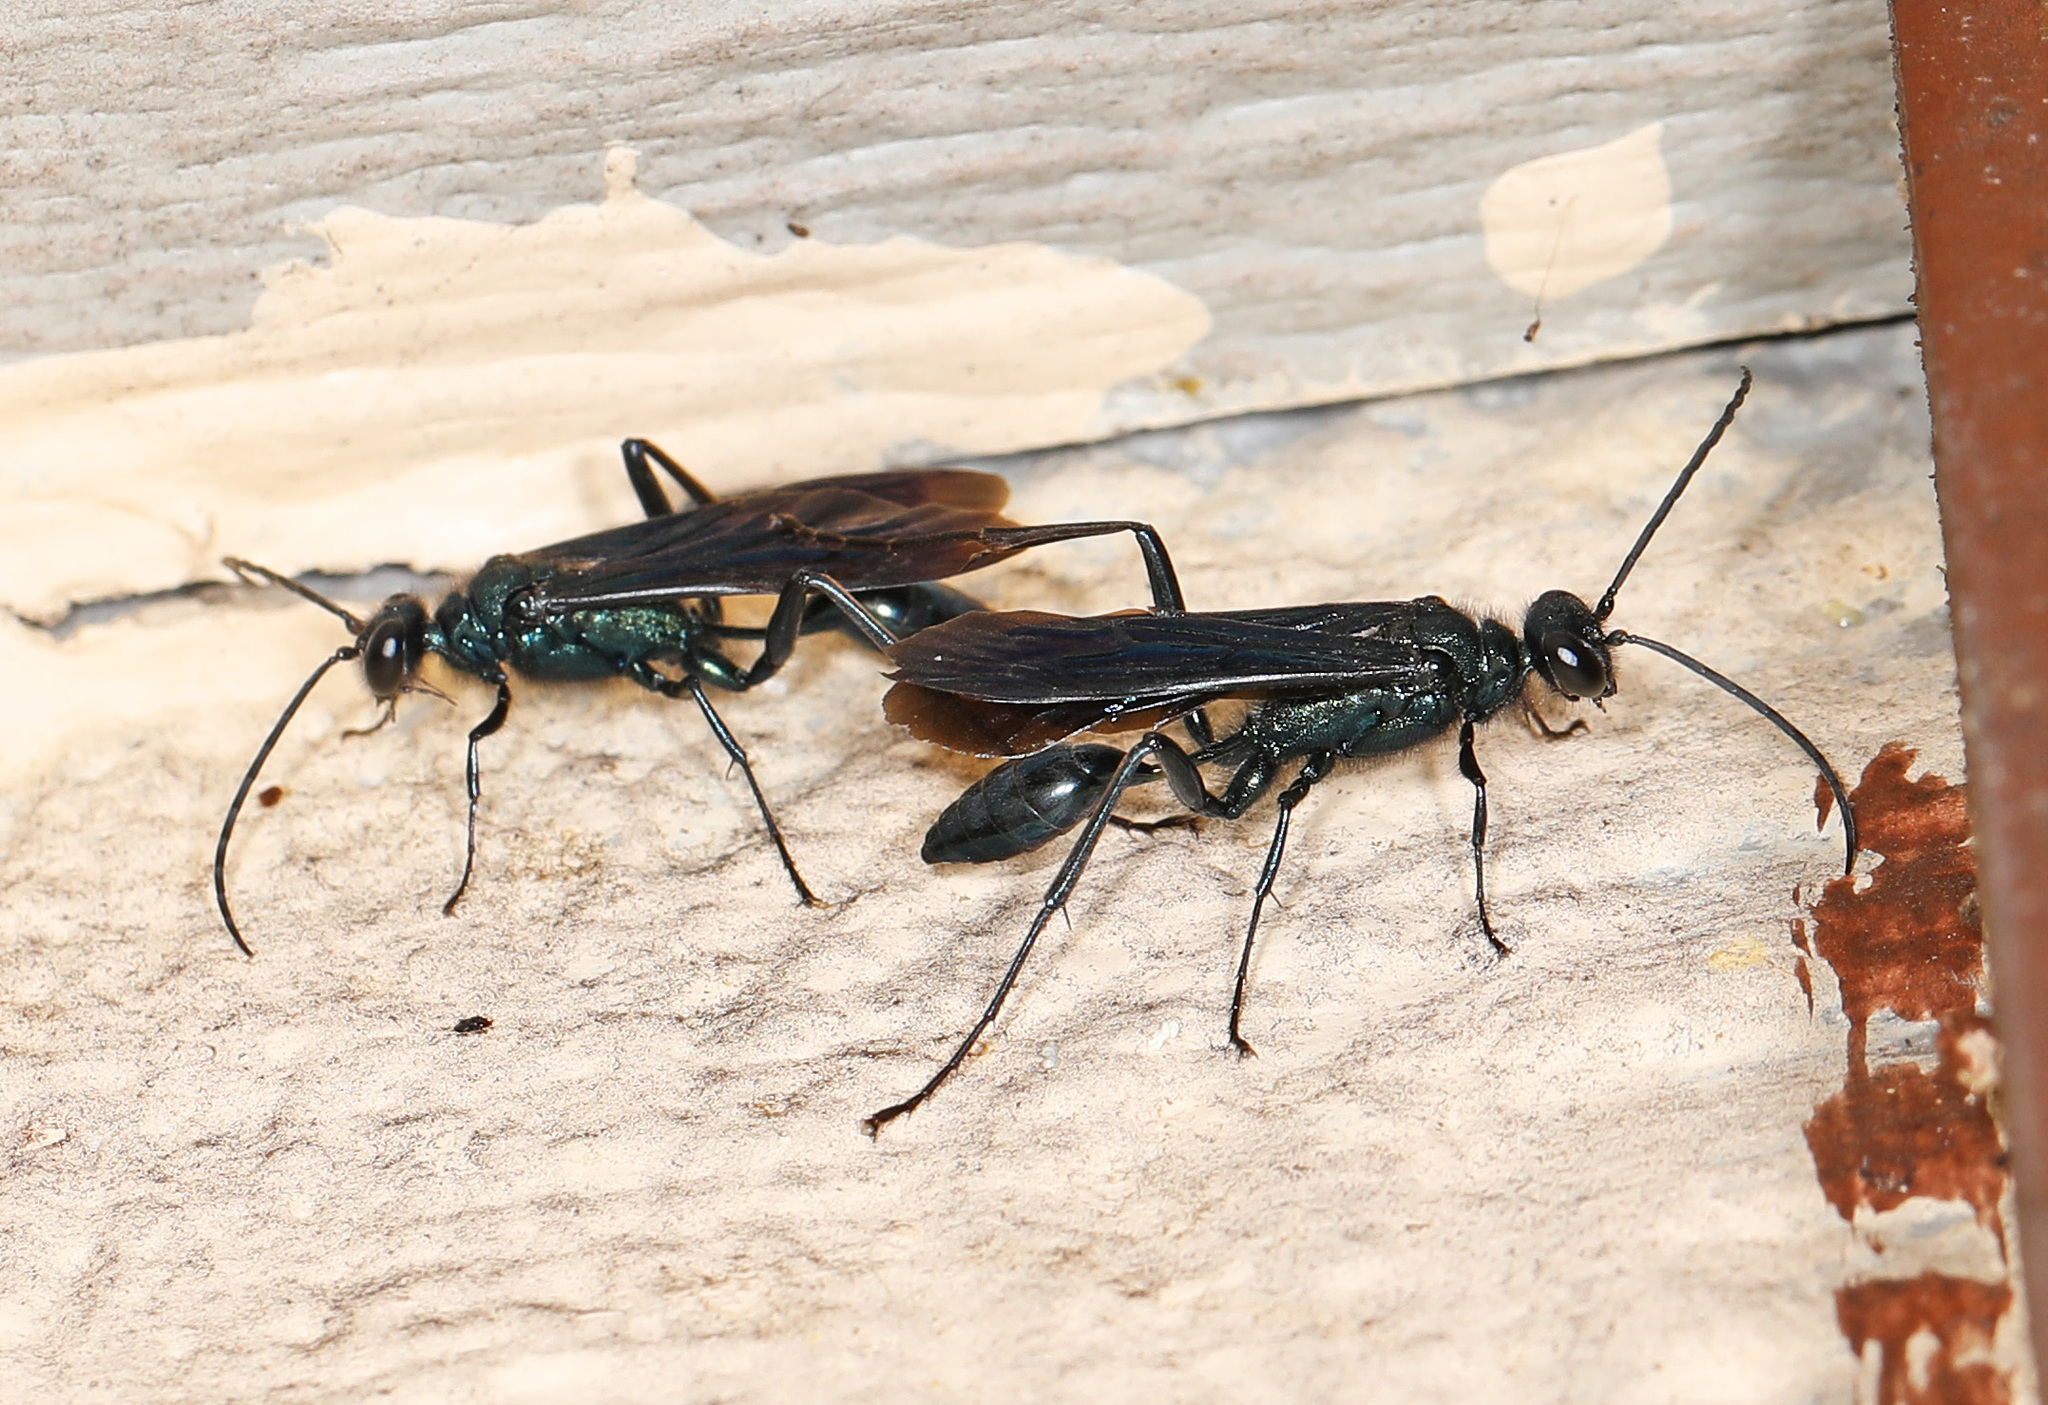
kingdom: Animalia
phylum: Arthropoda
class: Insecta
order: Hymenoptera
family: Sphecidae
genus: Chalybion
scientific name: Chalybion californicum
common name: Mud dauber
